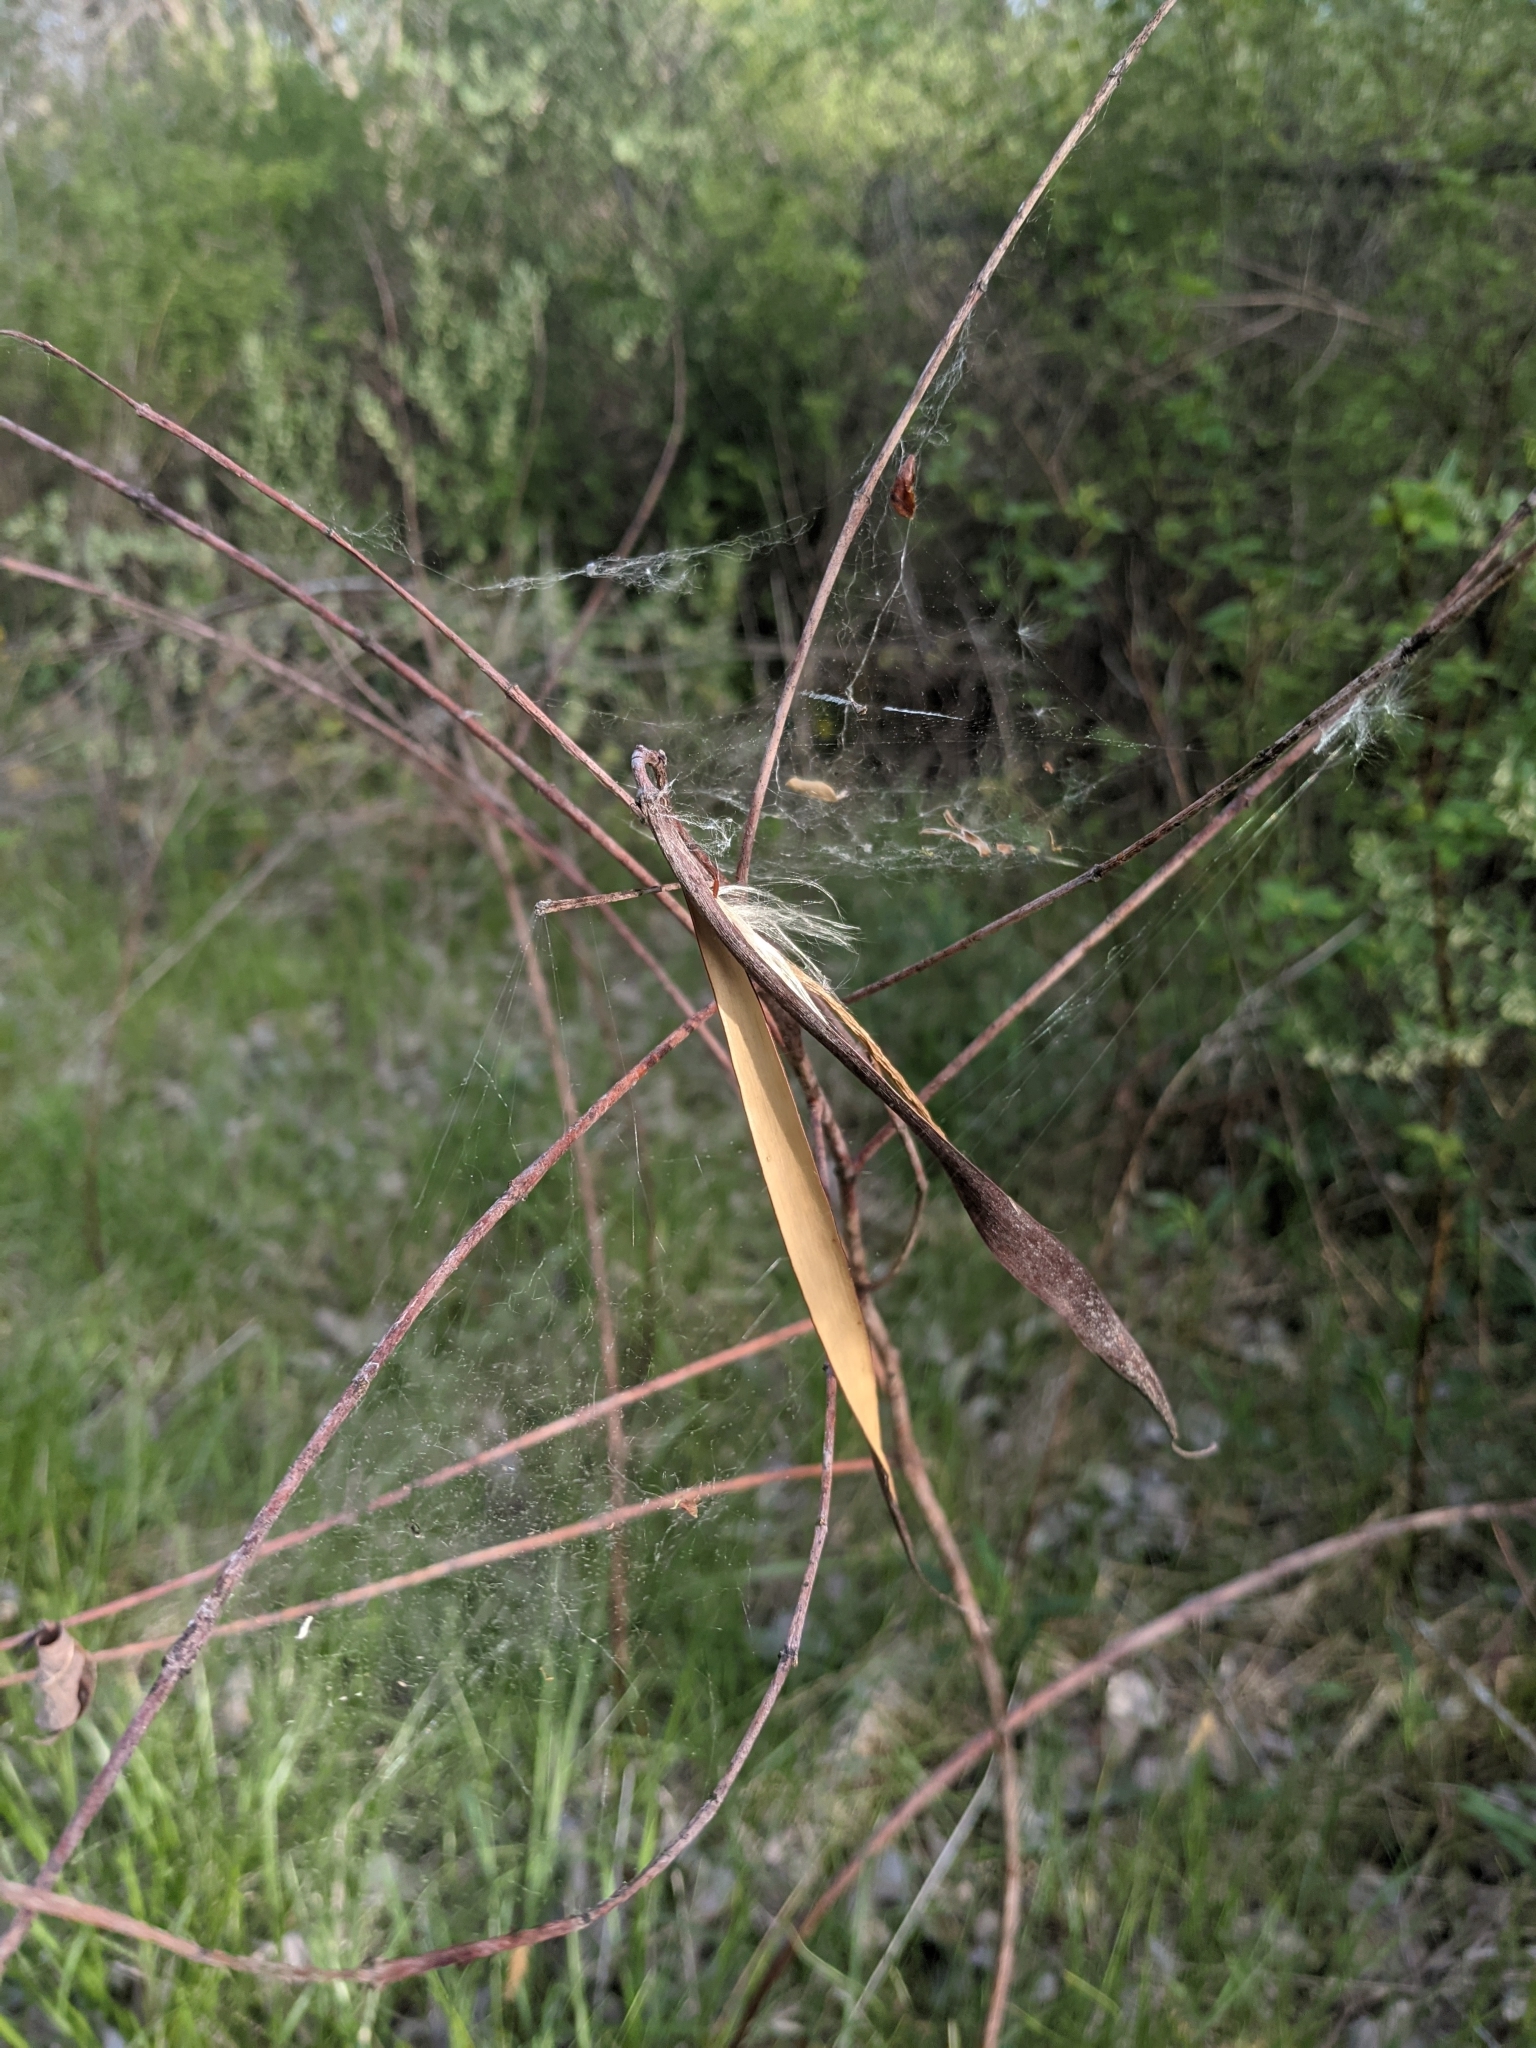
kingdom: Plantae
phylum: Tracheophyta
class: Magnoliopsida
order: Gentianales
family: Apocynaceae
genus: Apocynum
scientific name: Apocynum cannabinum
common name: Hemp dogbane
